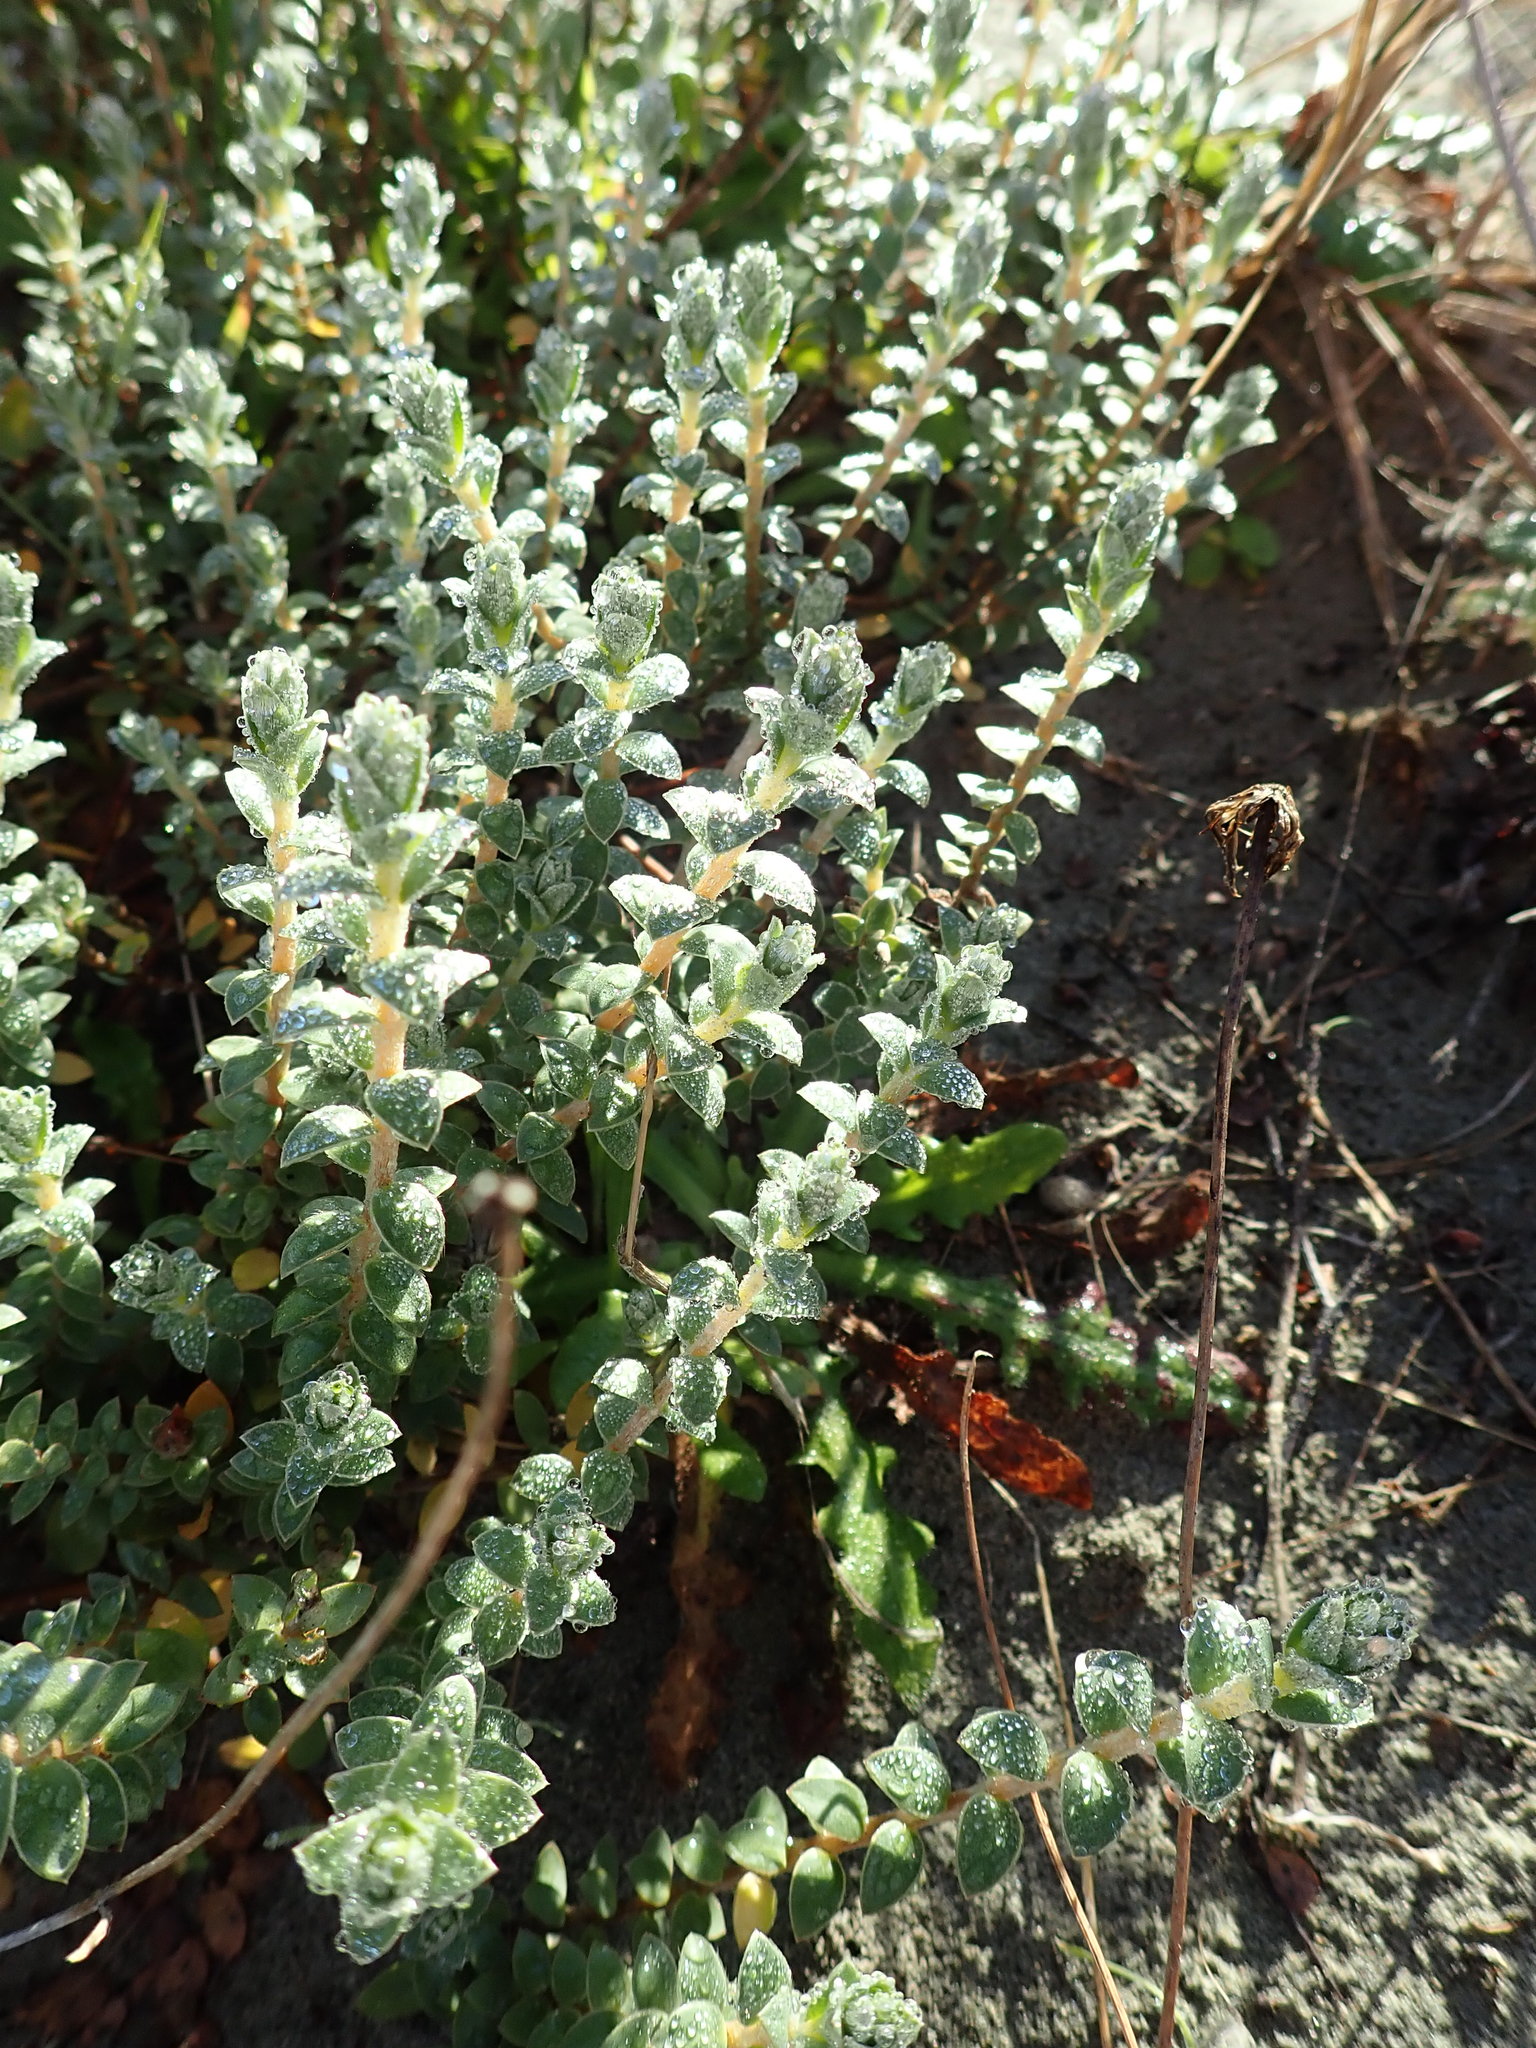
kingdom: Plantae
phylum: Tracheophyta
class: Magnoliopsida
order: Malvales
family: Thymelaeaceae
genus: Pimelea
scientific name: Pimelea villosa
